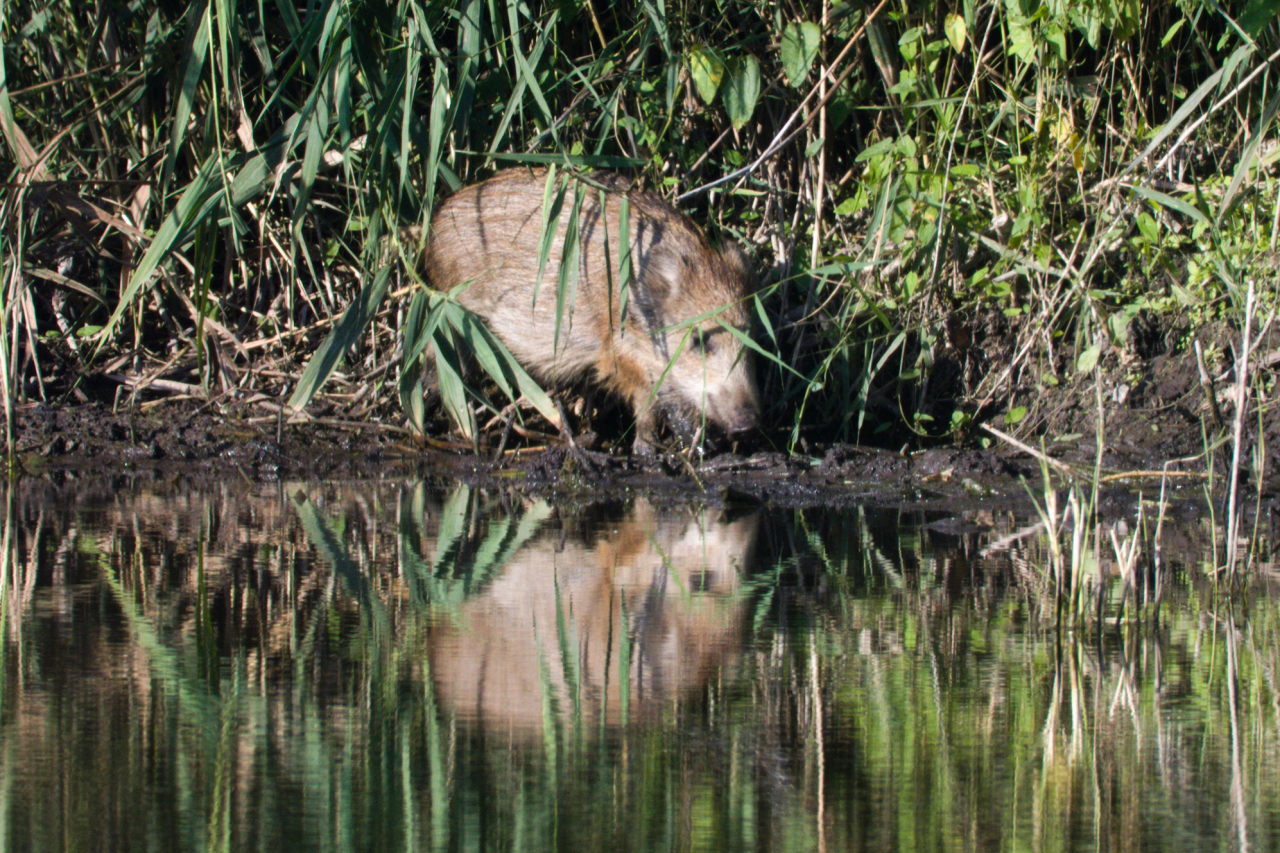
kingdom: Animalia
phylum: Chordata
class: Mammalia
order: Artiodactyla
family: Suidae
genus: Sus
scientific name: Sus scrofa
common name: Wild boar
